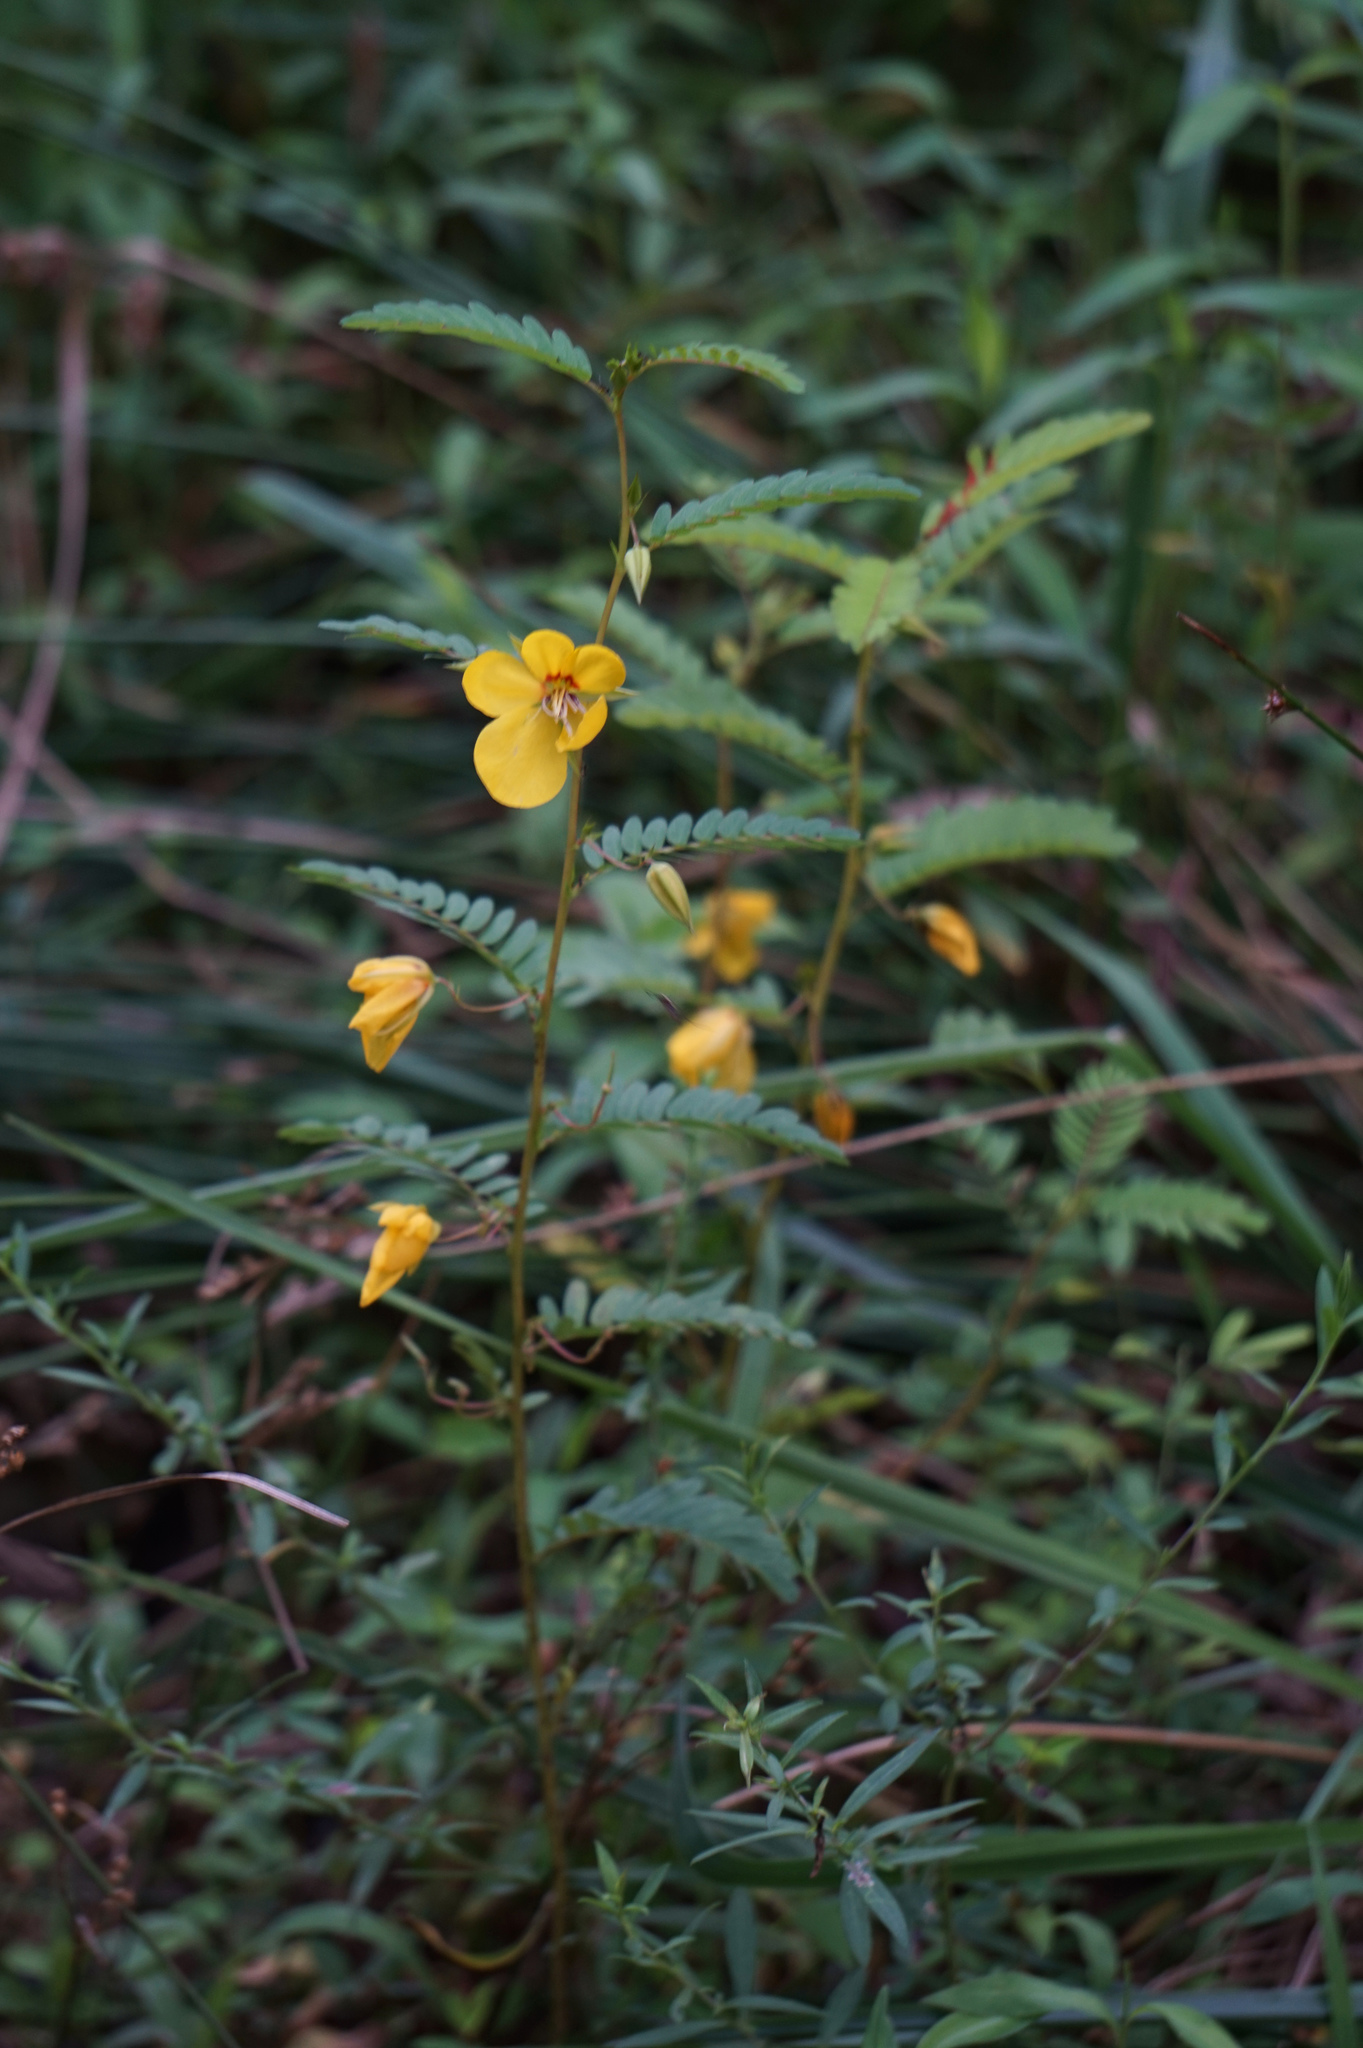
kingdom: Plantae
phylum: Tracheophyta
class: Magnoliopsida
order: Fabales
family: Fabaceae
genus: Chamaecrista
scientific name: Chamaecrista fasciculata
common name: Golden cassia
